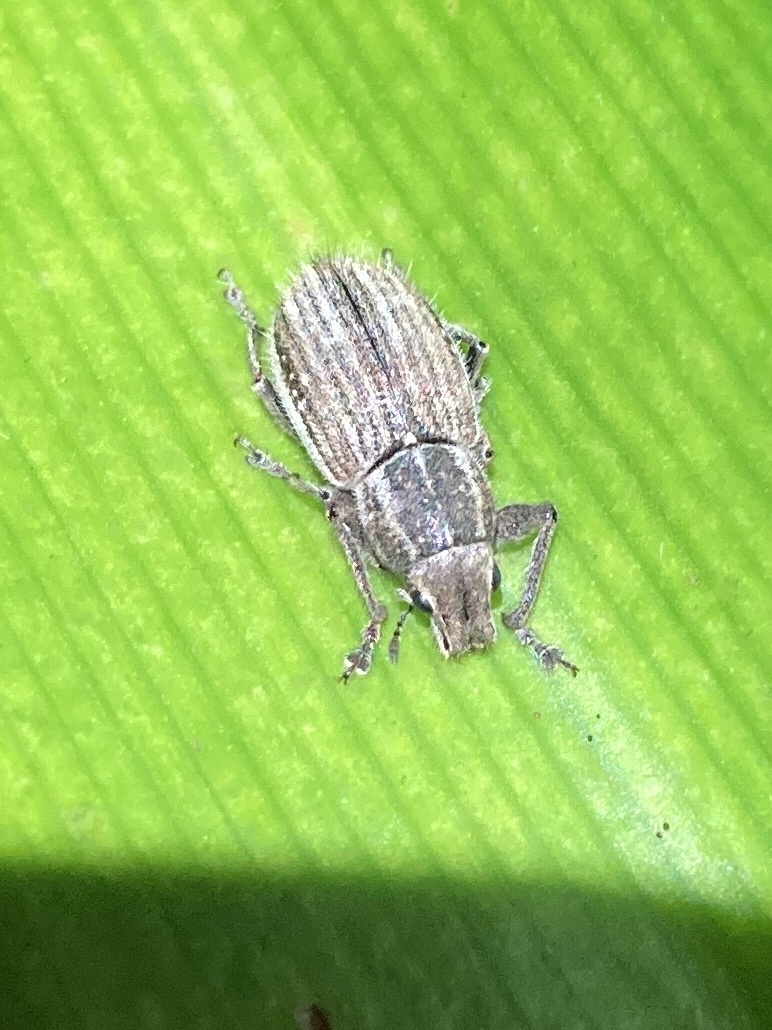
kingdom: Animalia
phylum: Arthropoda
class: Insecta
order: Coleoptera
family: Curculionidae
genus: Naupactus
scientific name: Naupactus leucoloma
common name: Whitefringed beetle
